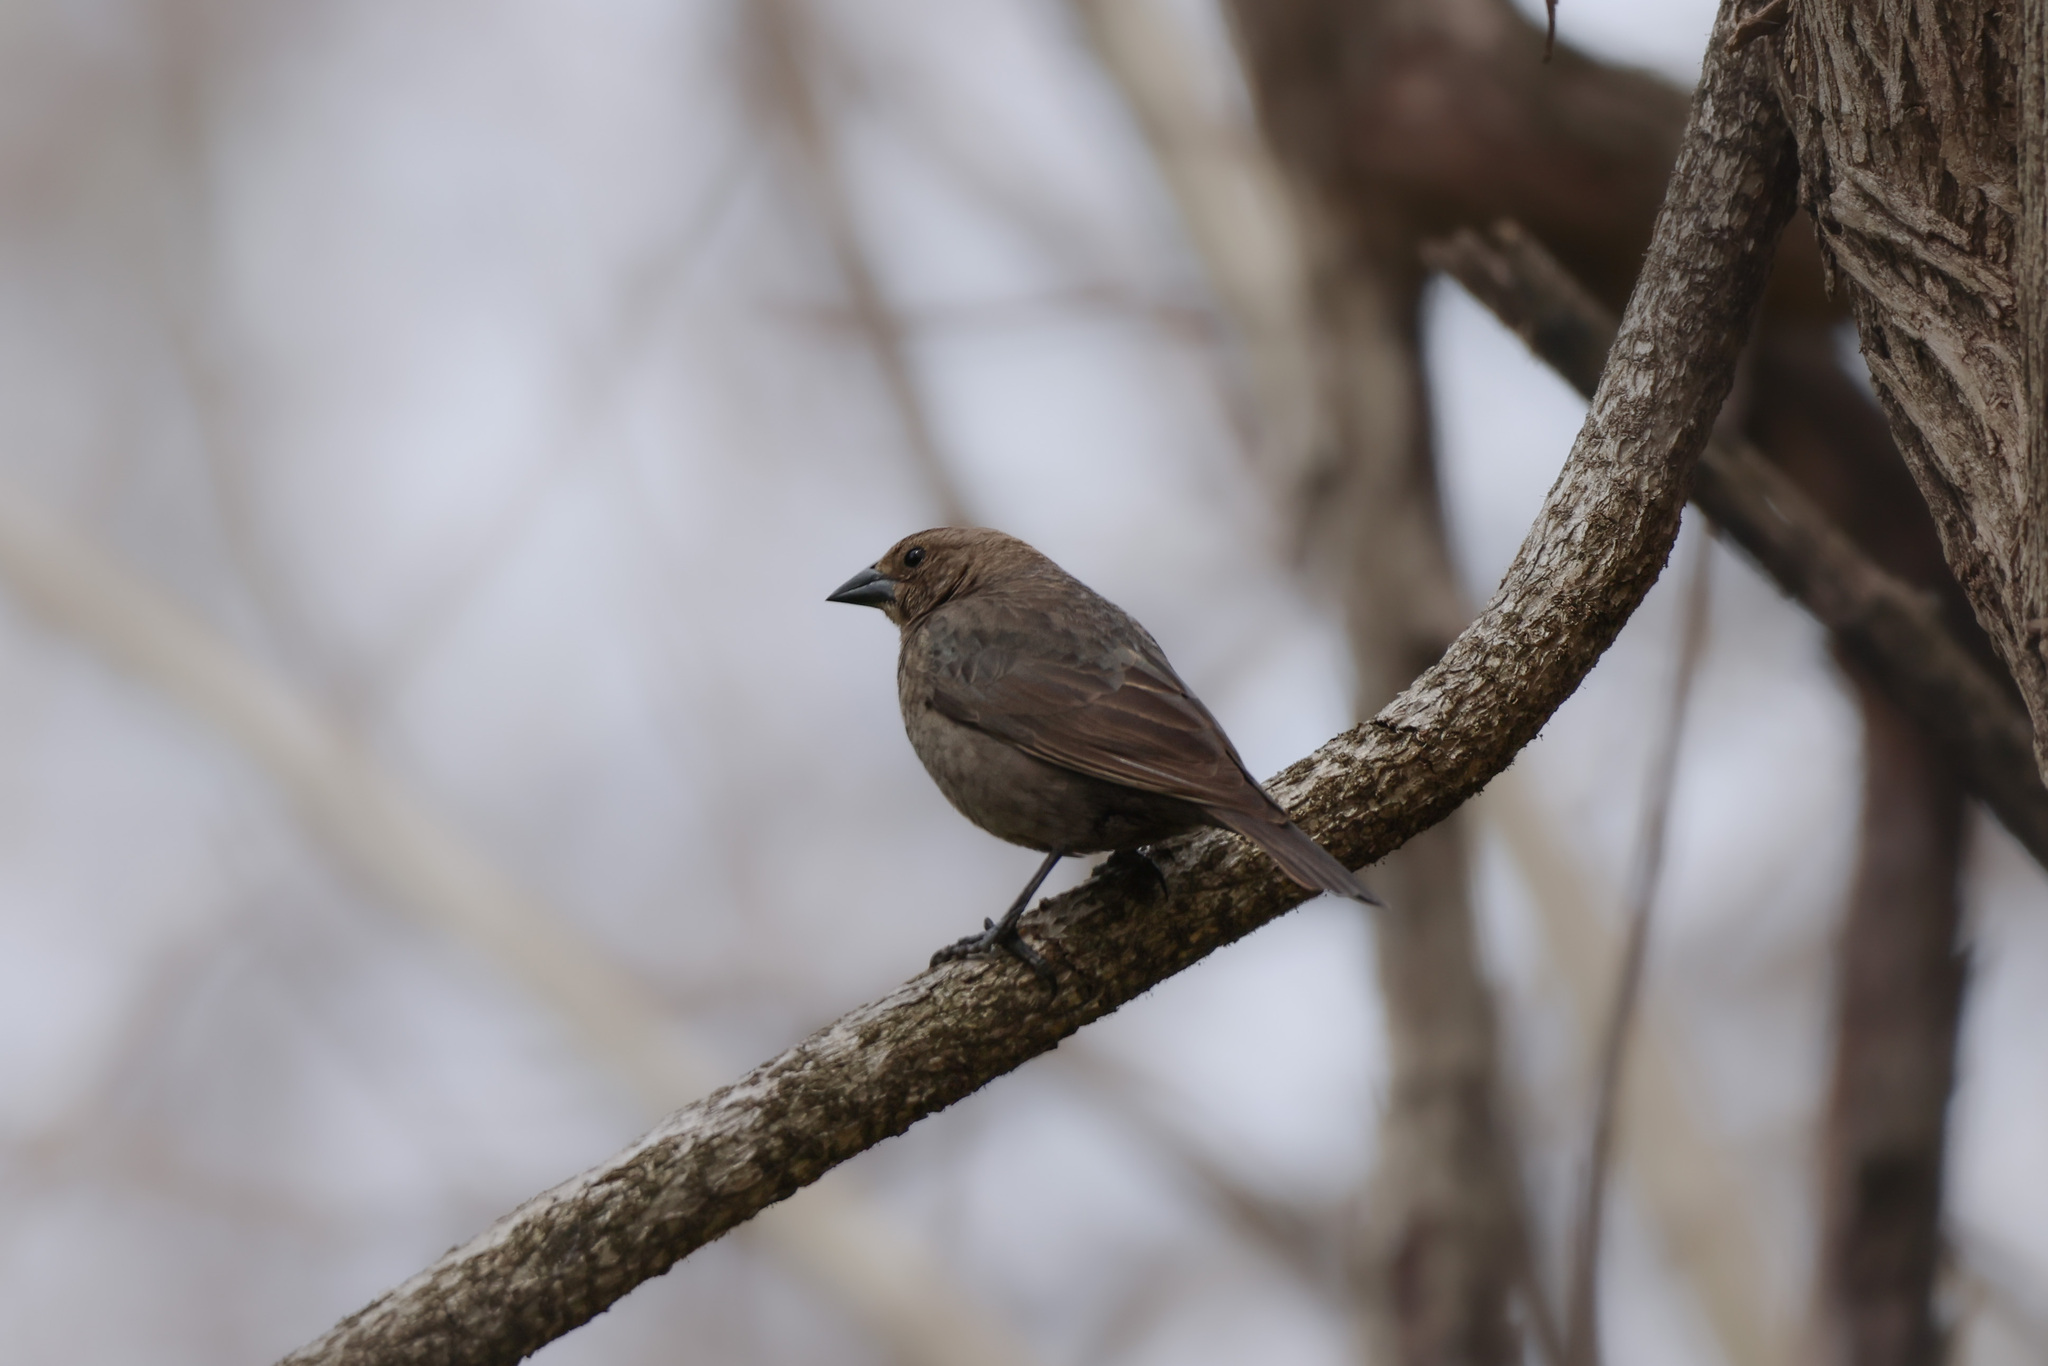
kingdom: Animalia
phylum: Chordata
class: Aves
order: Passeriformes
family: Icteridae
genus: Molothrus
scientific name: Molothrus ater
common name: Brown-headed cowbird
